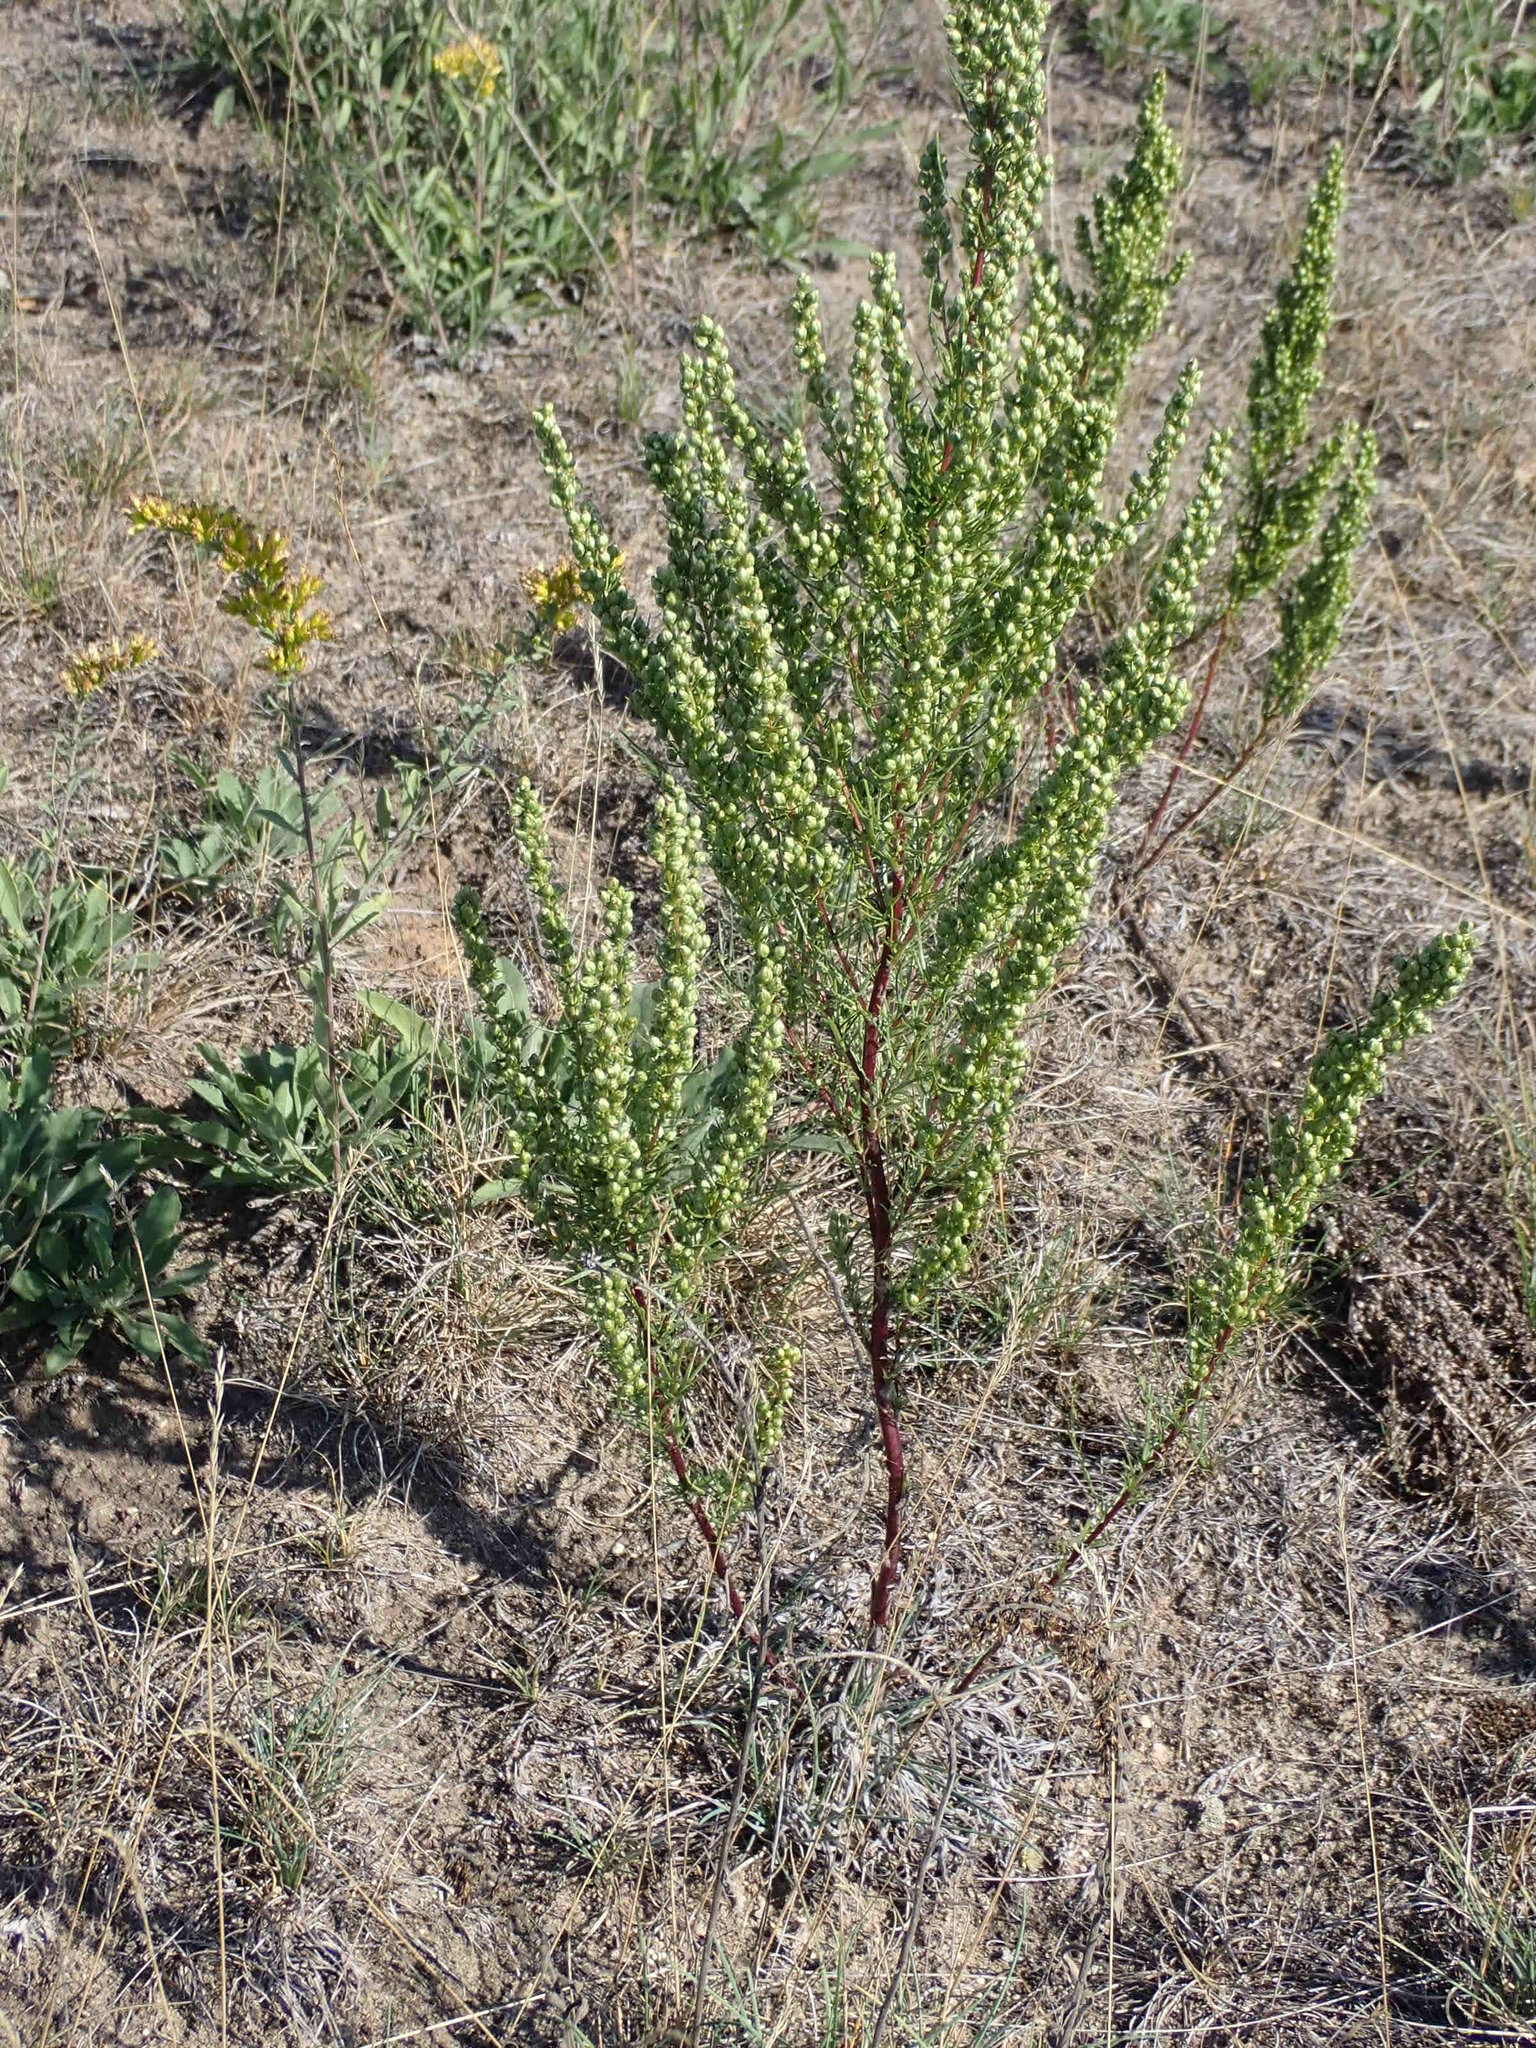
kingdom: Plantae
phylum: Tracheophyta
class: Magnoliopsida
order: Asterales
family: Asteraceae
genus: Artemisia
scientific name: Artemisia campestris
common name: Field wormwood
